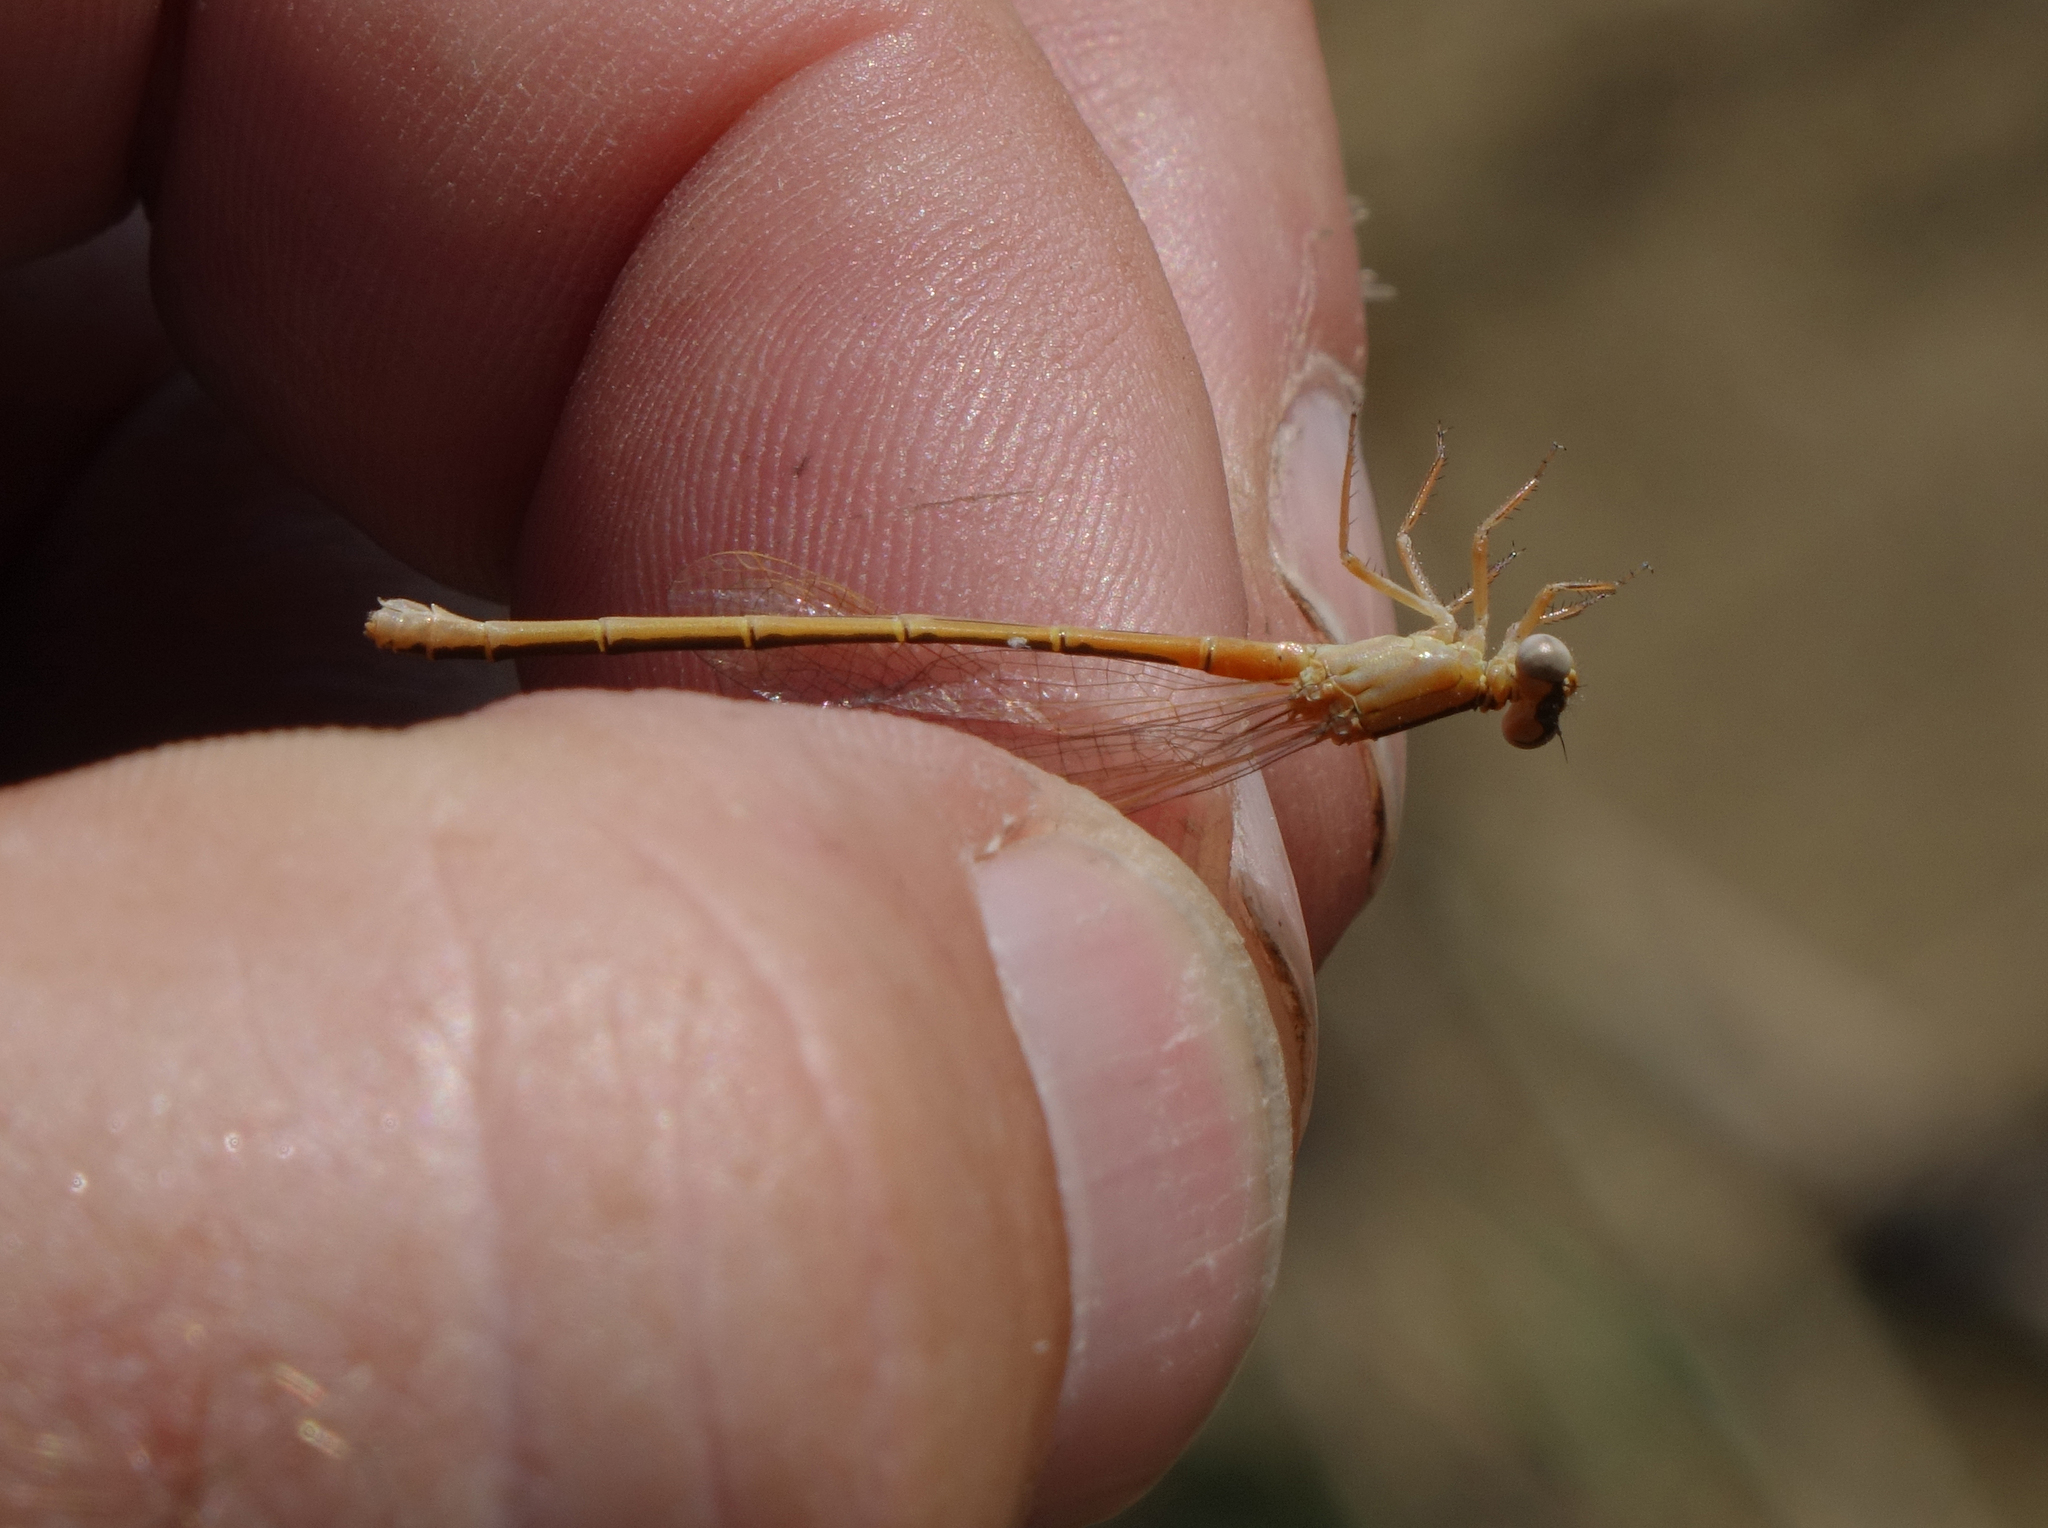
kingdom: Animalia
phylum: Arthropoda
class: Insecta
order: Odonata
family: Coenagrionidae
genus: Ischnura
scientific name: Ischnura pumilio
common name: Scarce blue-tailed damselfly
